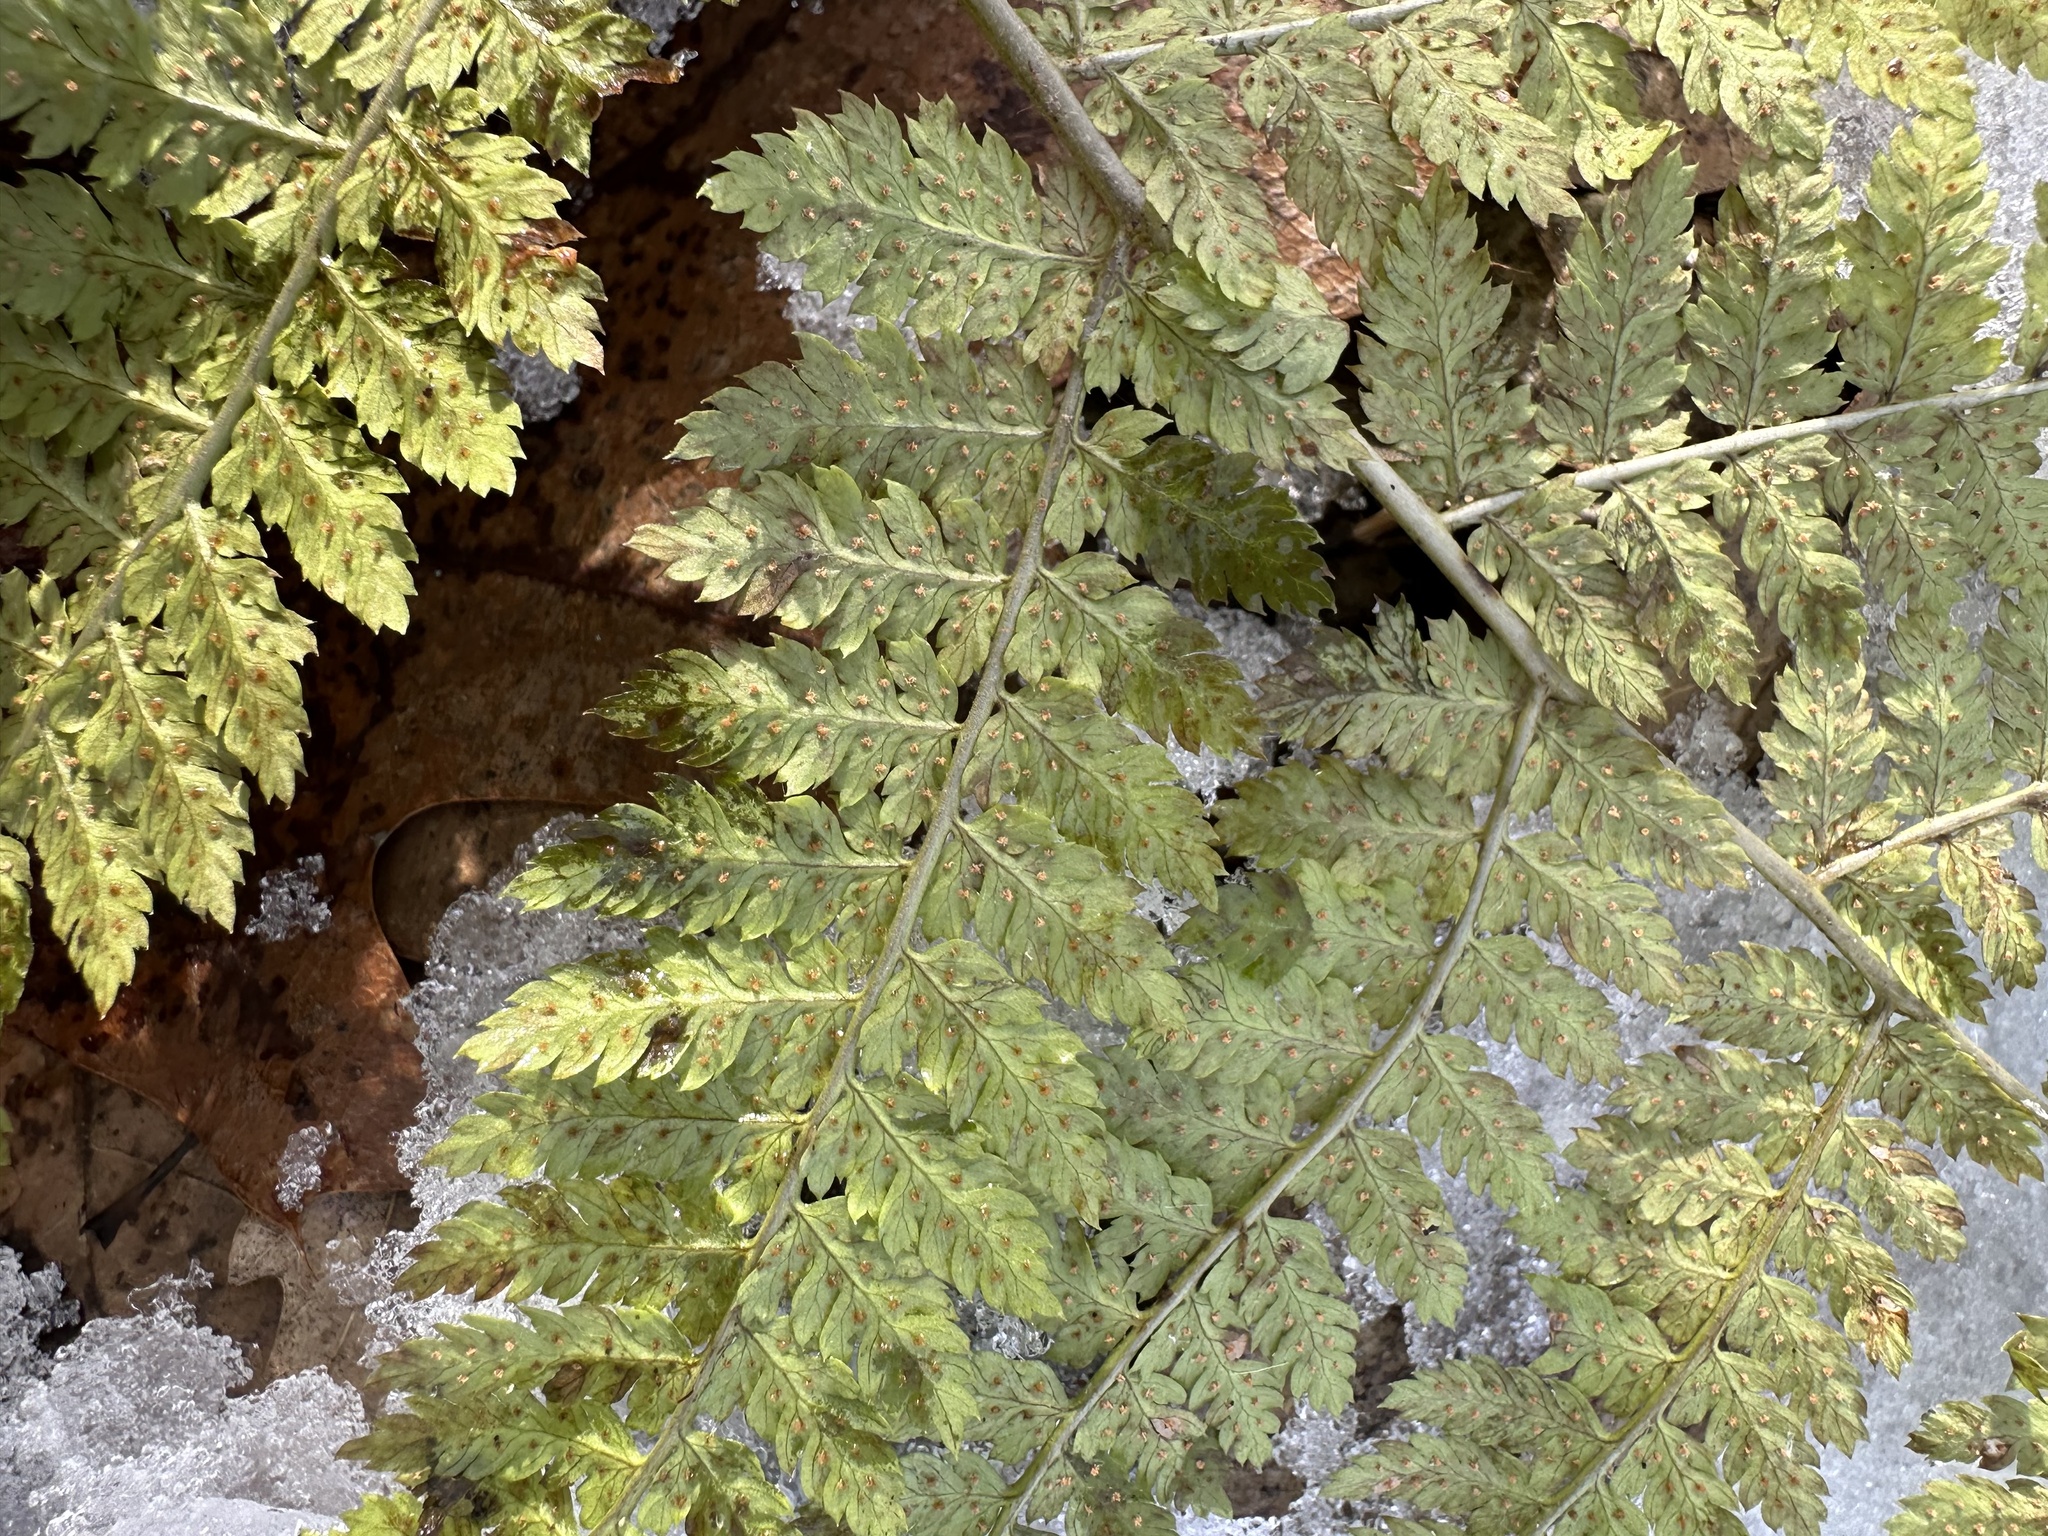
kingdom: Plantae
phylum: Tracheophyta
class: Polypodiopsida
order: Polypodiales
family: Dryopteridaceae
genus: Dryopteris
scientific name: Dryopteris intermedia
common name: Evergreen wood fern
